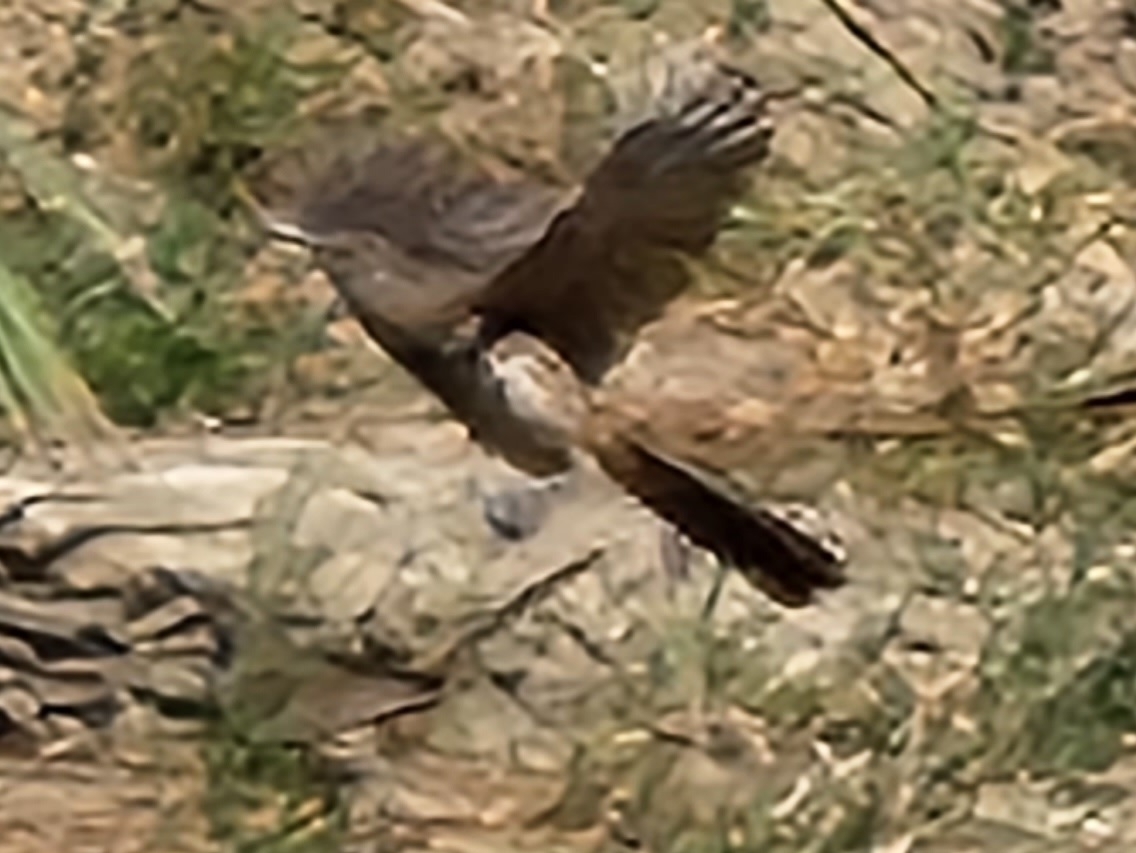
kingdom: Animalia
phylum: Chordata
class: Aves
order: Passeriformes
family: Mimidae
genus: Toxostoma
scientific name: Toxostoma cinereum
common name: Gray thrasher
